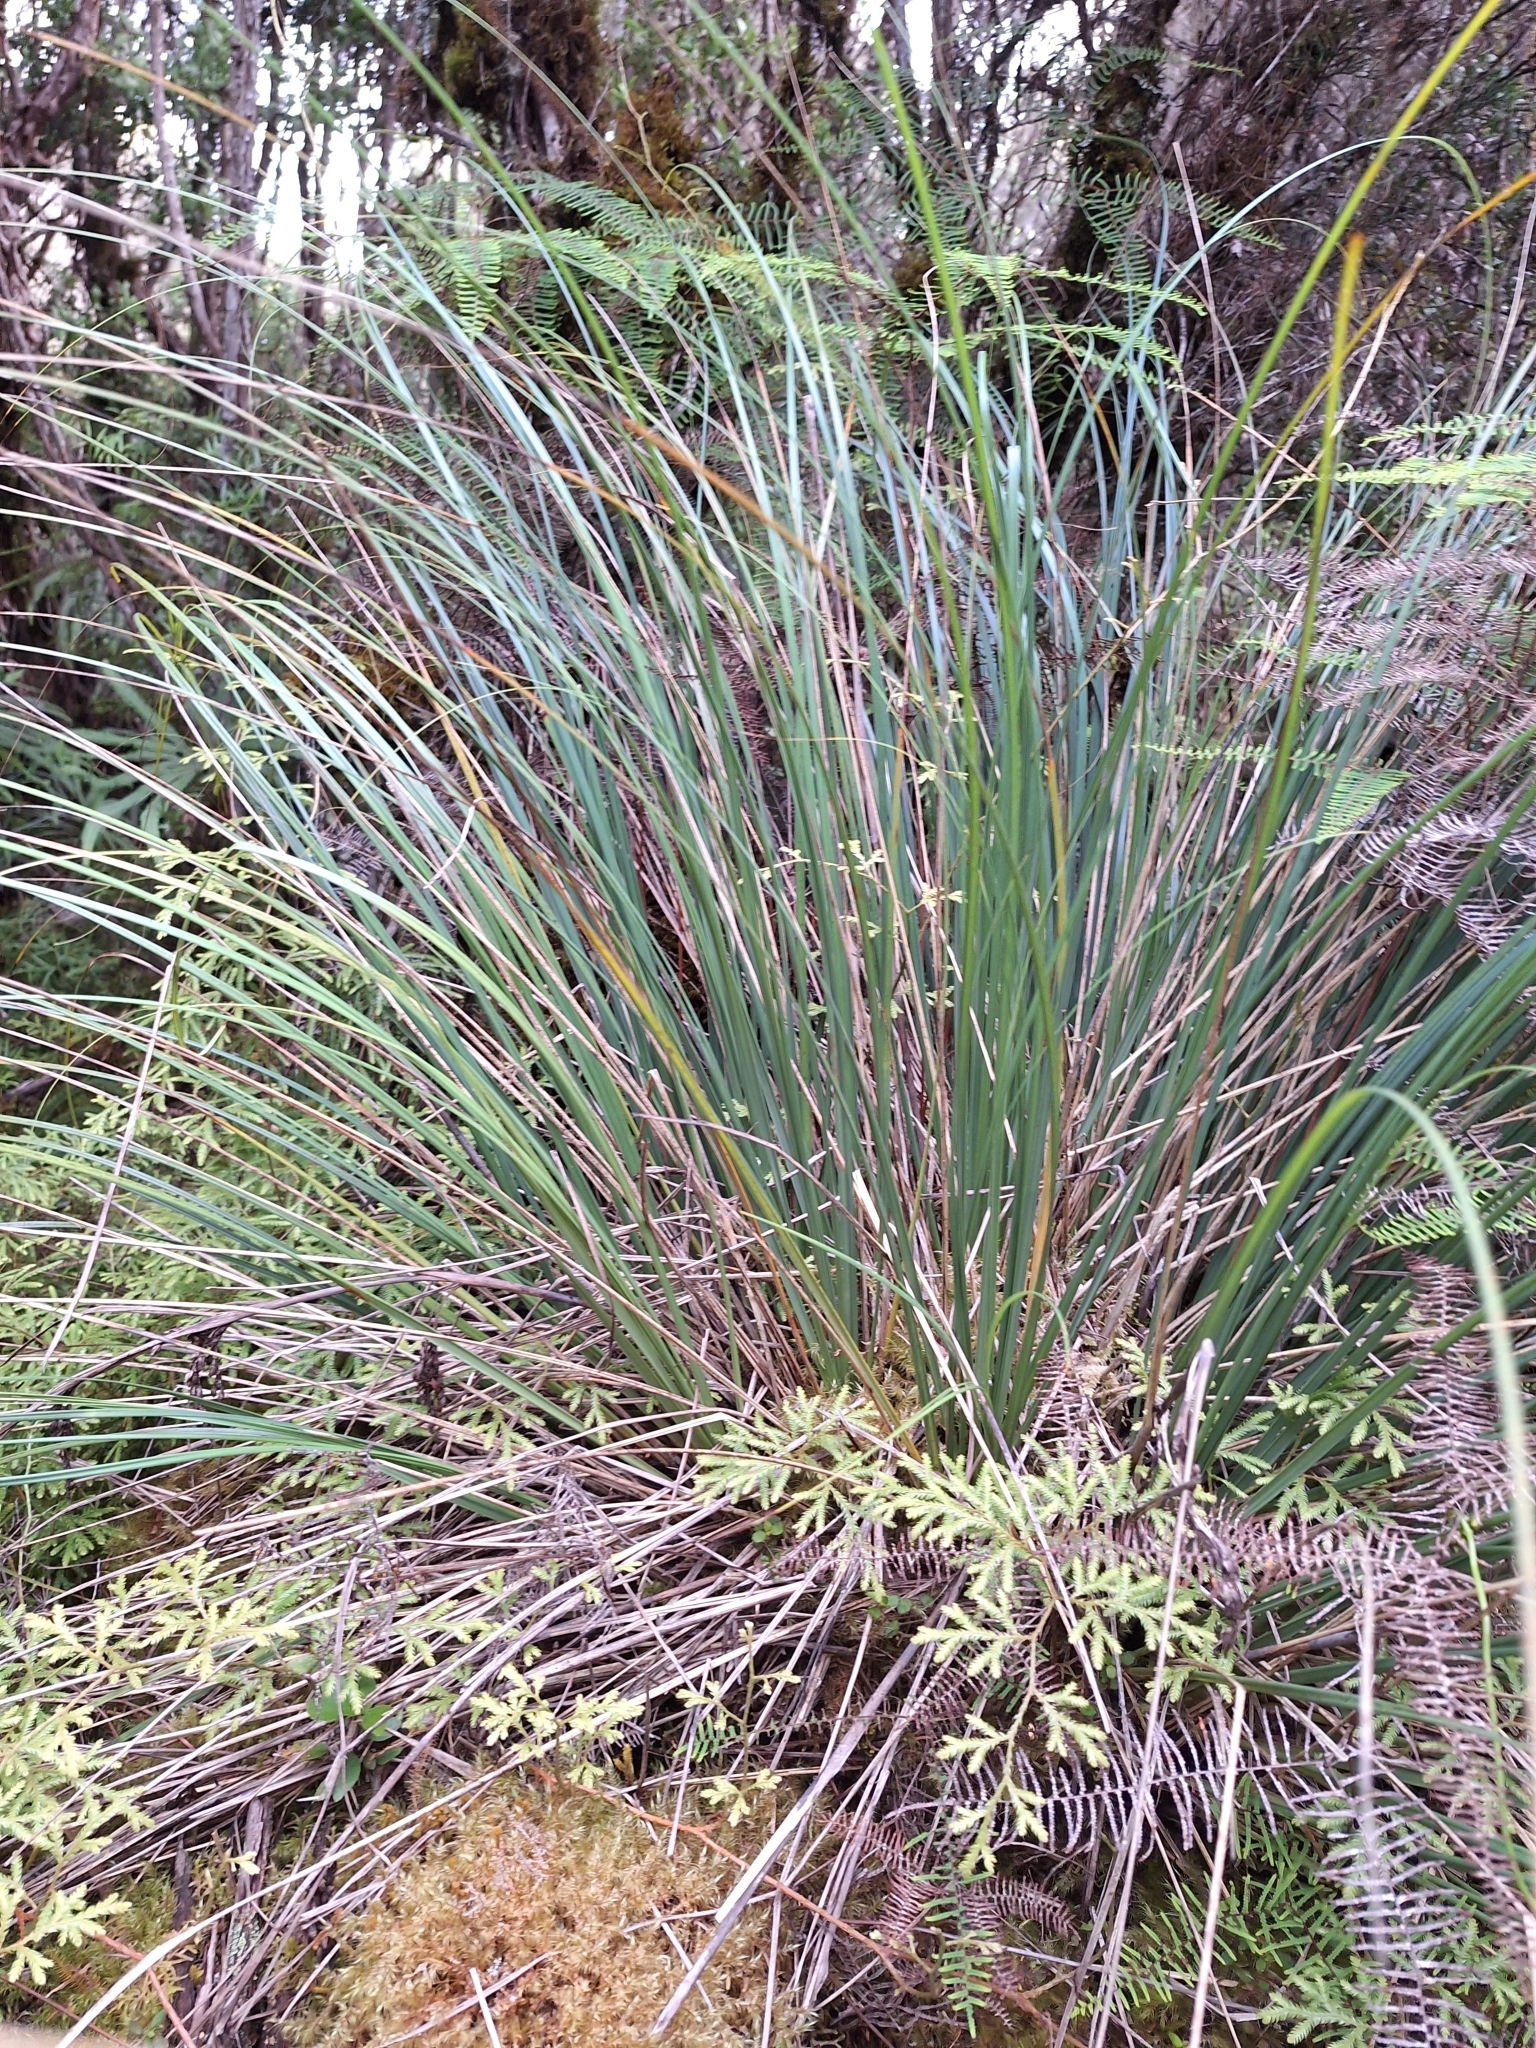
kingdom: Plantae
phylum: Tracheophyta
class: Liliopsida
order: Poales
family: Cyperaceae
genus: Gahnia
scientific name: Gahnia procera
